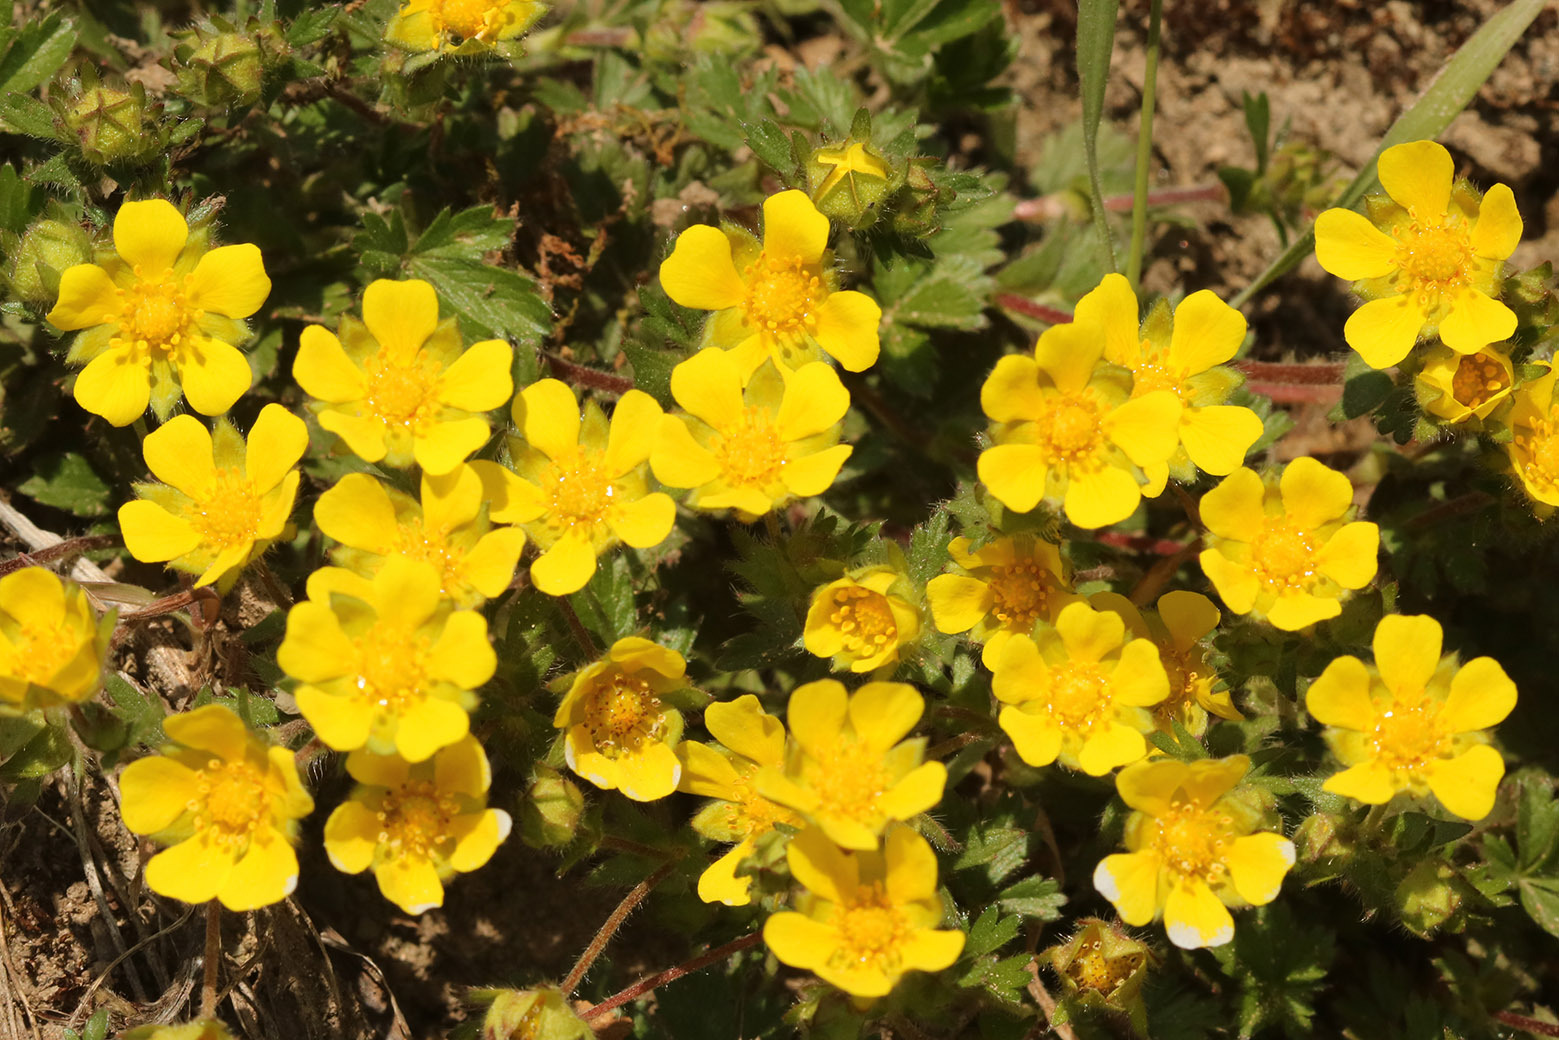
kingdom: Plantae
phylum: Tracheophyta
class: Magnoliopsida
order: Rosales
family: Rosaceae
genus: Potentilla
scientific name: Potentilla verna
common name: Spring cinquefoil
